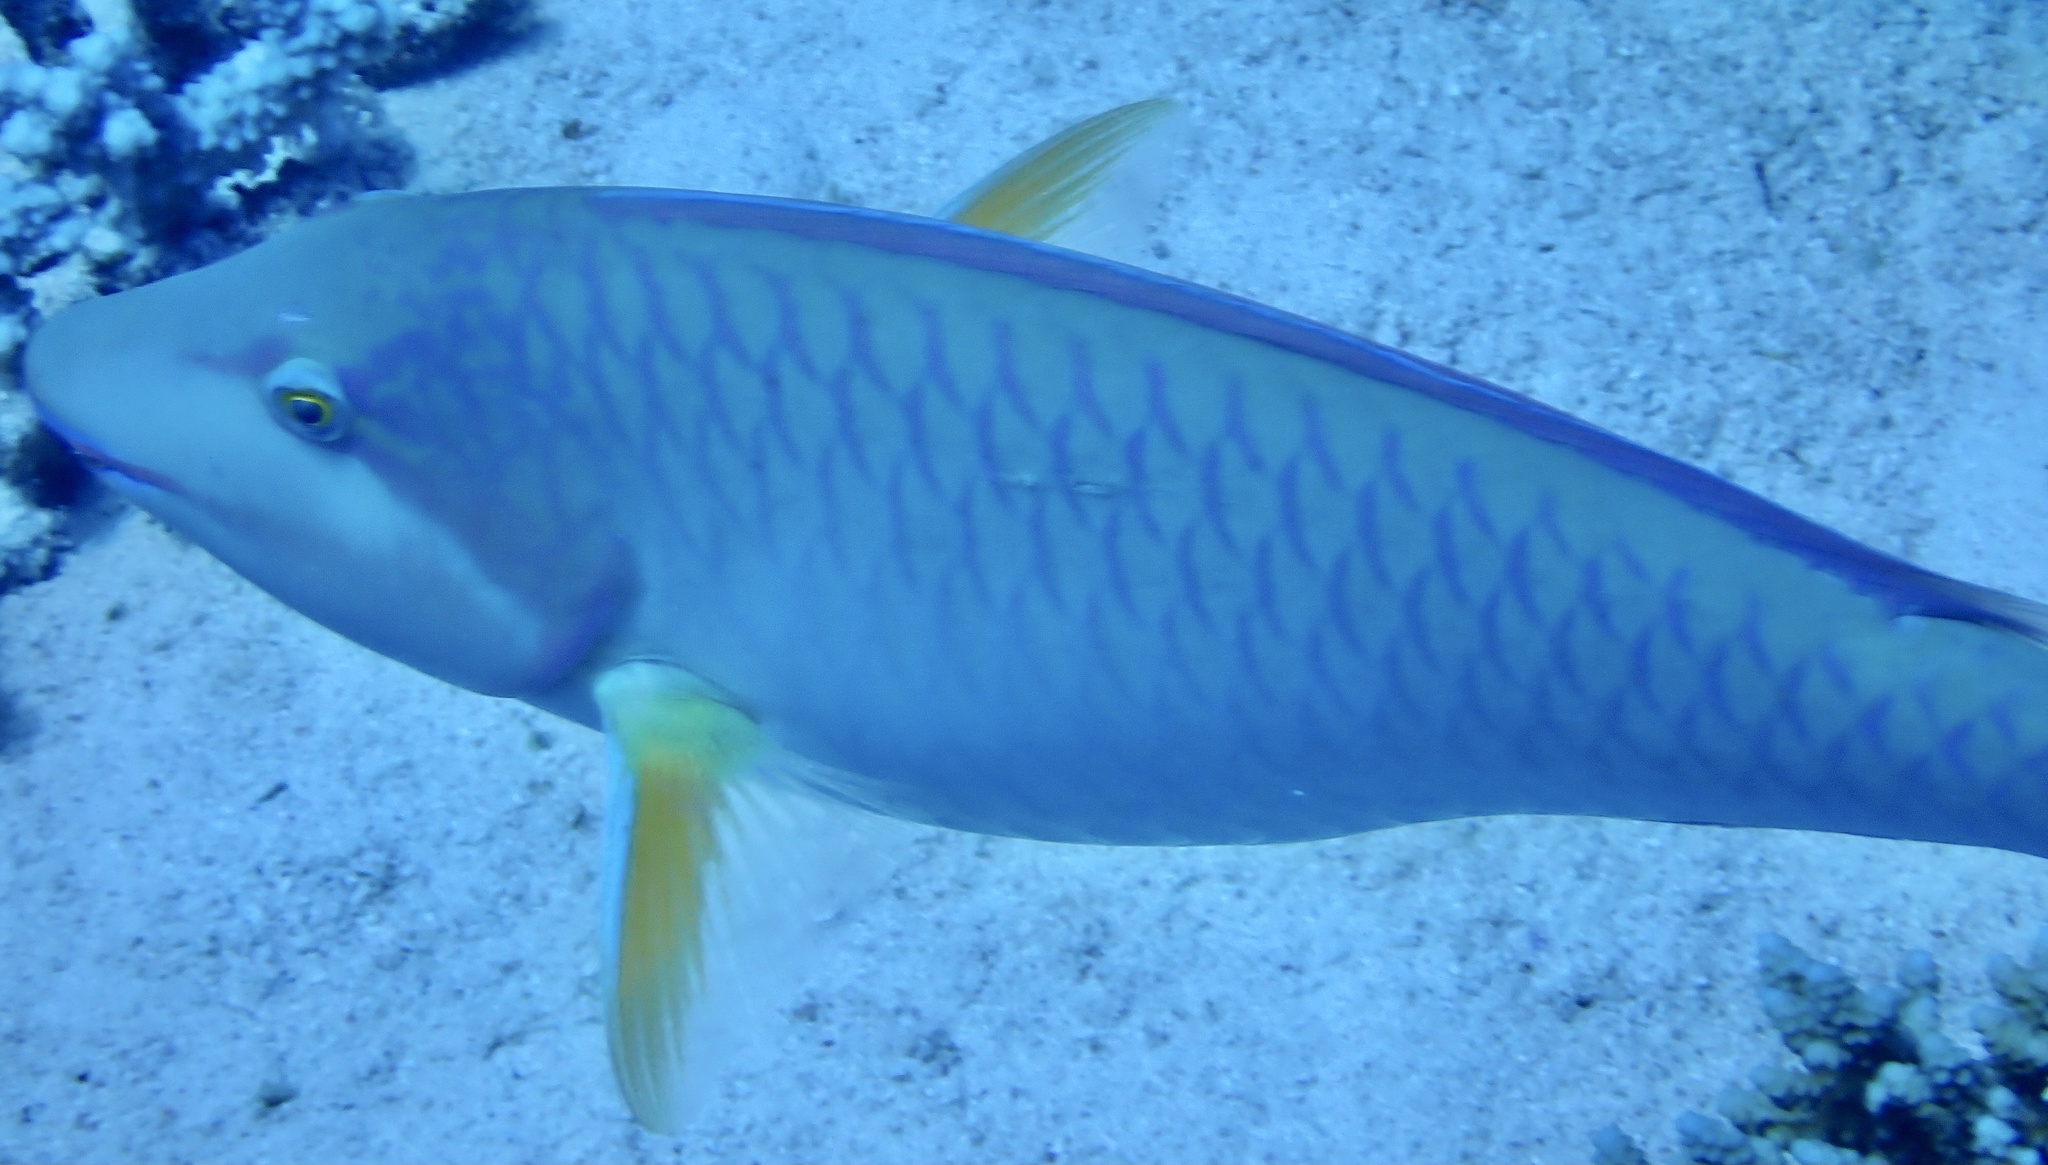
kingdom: Animalia
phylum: Chordata
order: Perciformes
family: Scaridae
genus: Hipposcarus
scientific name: Hipposcarus harid
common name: Candelamoa parrotfish
